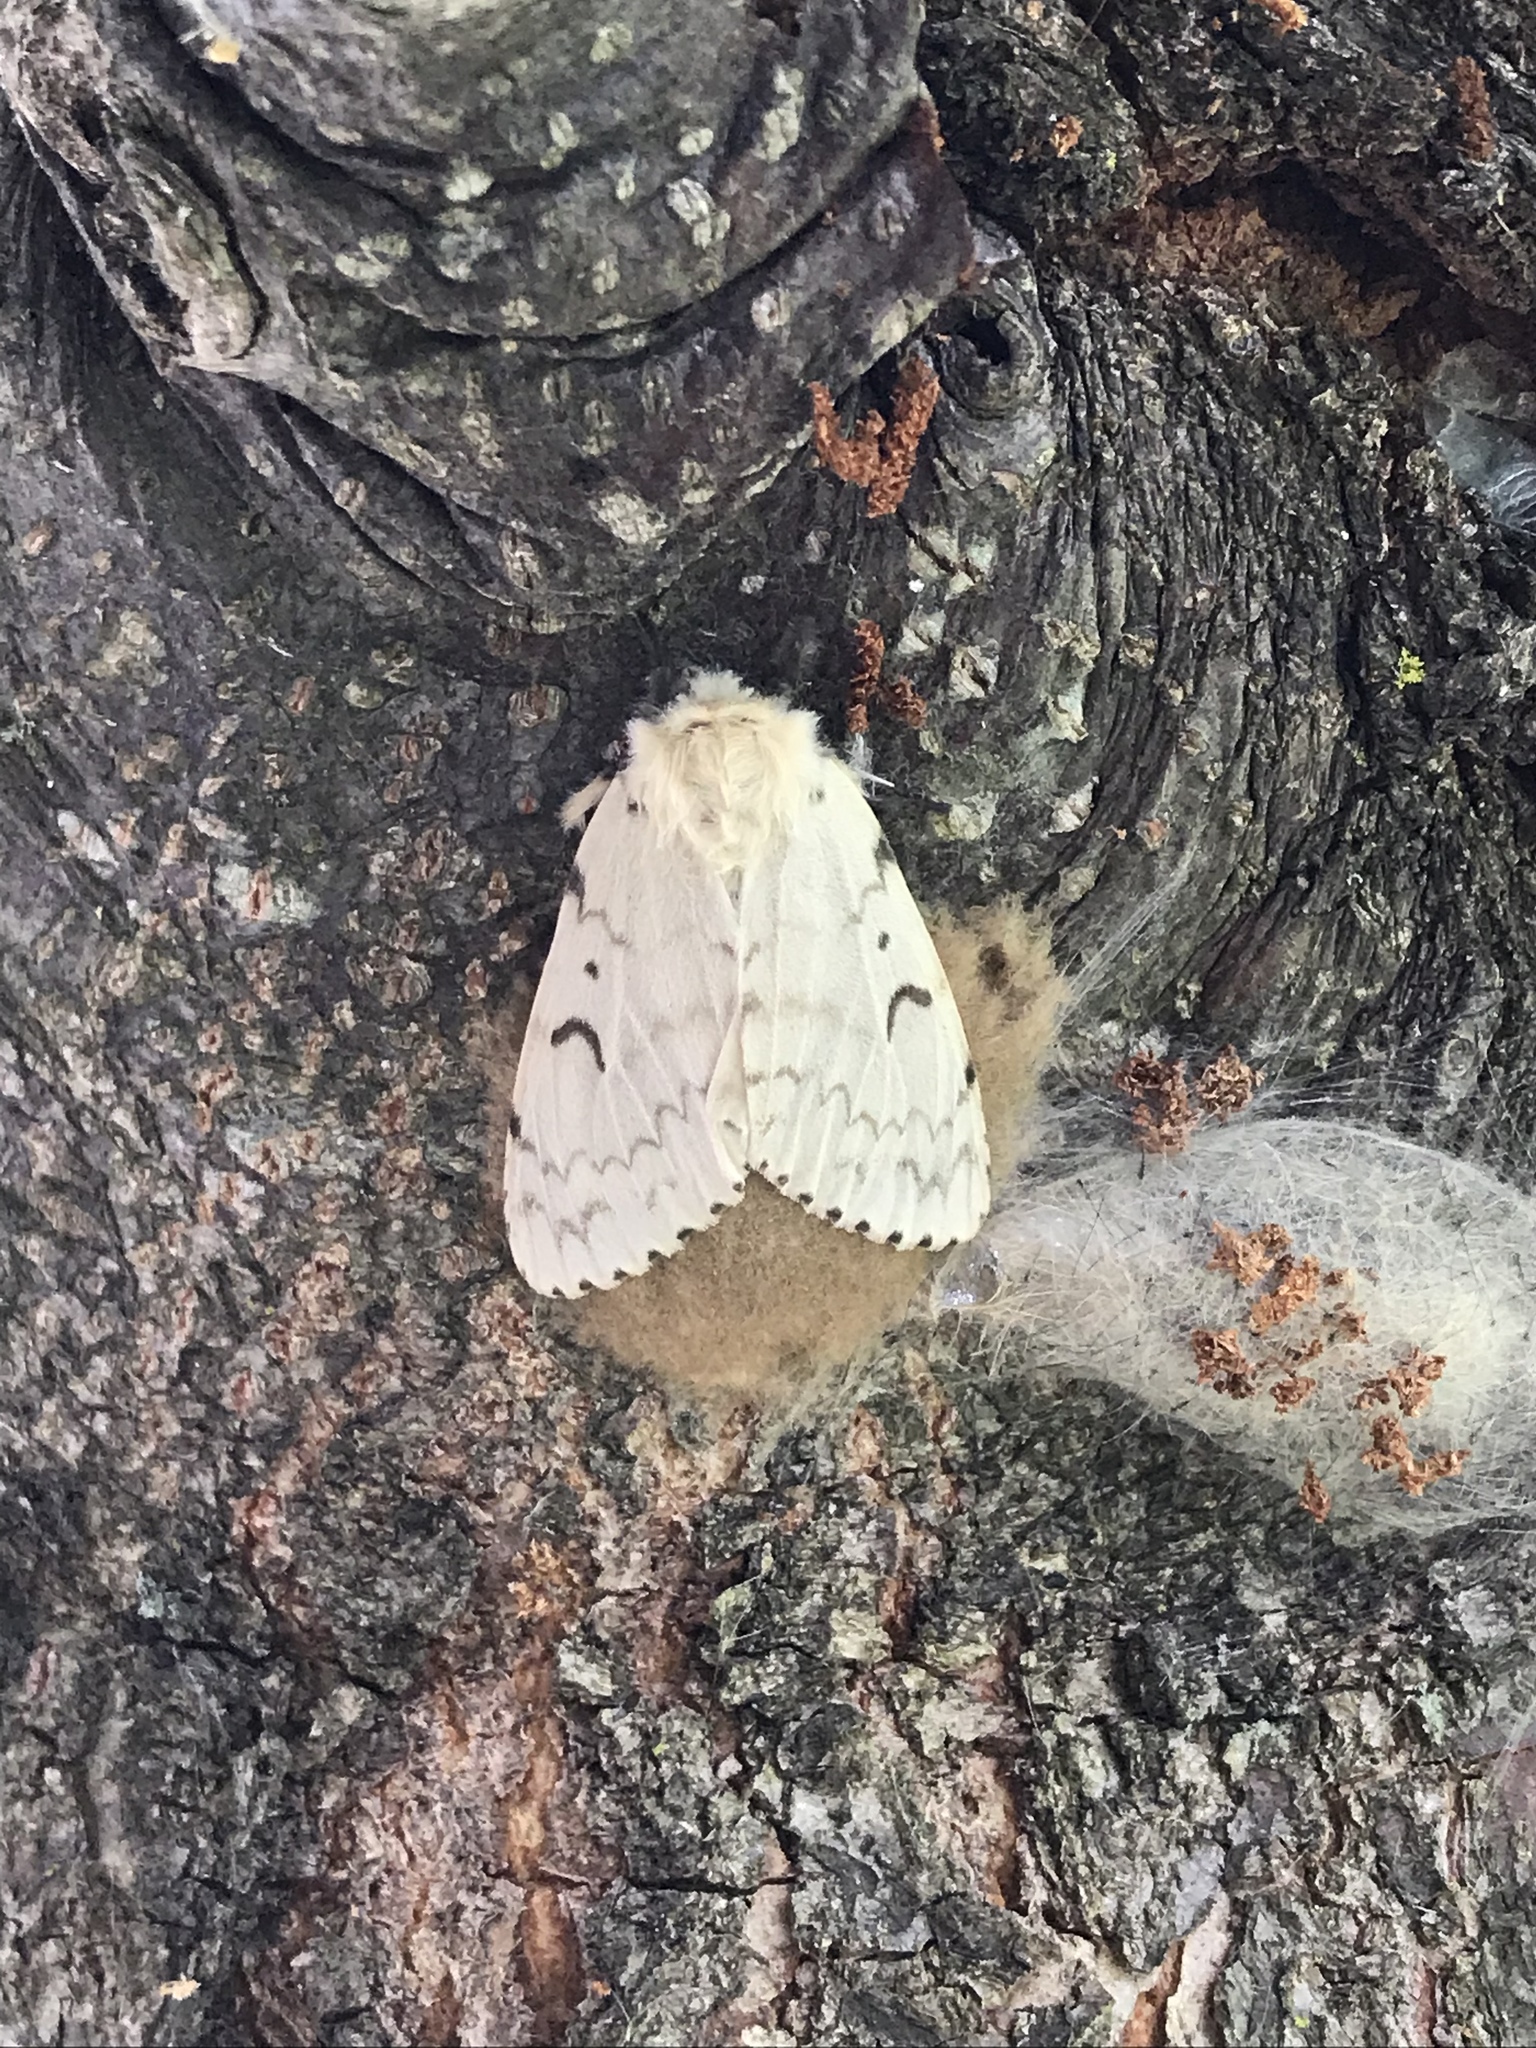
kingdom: Animalia
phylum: Arthropoda
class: Insecta
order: Lepidoptera
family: Erebidae
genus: Lymantria
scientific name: Lymantria dispar
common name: Gypsy moth
